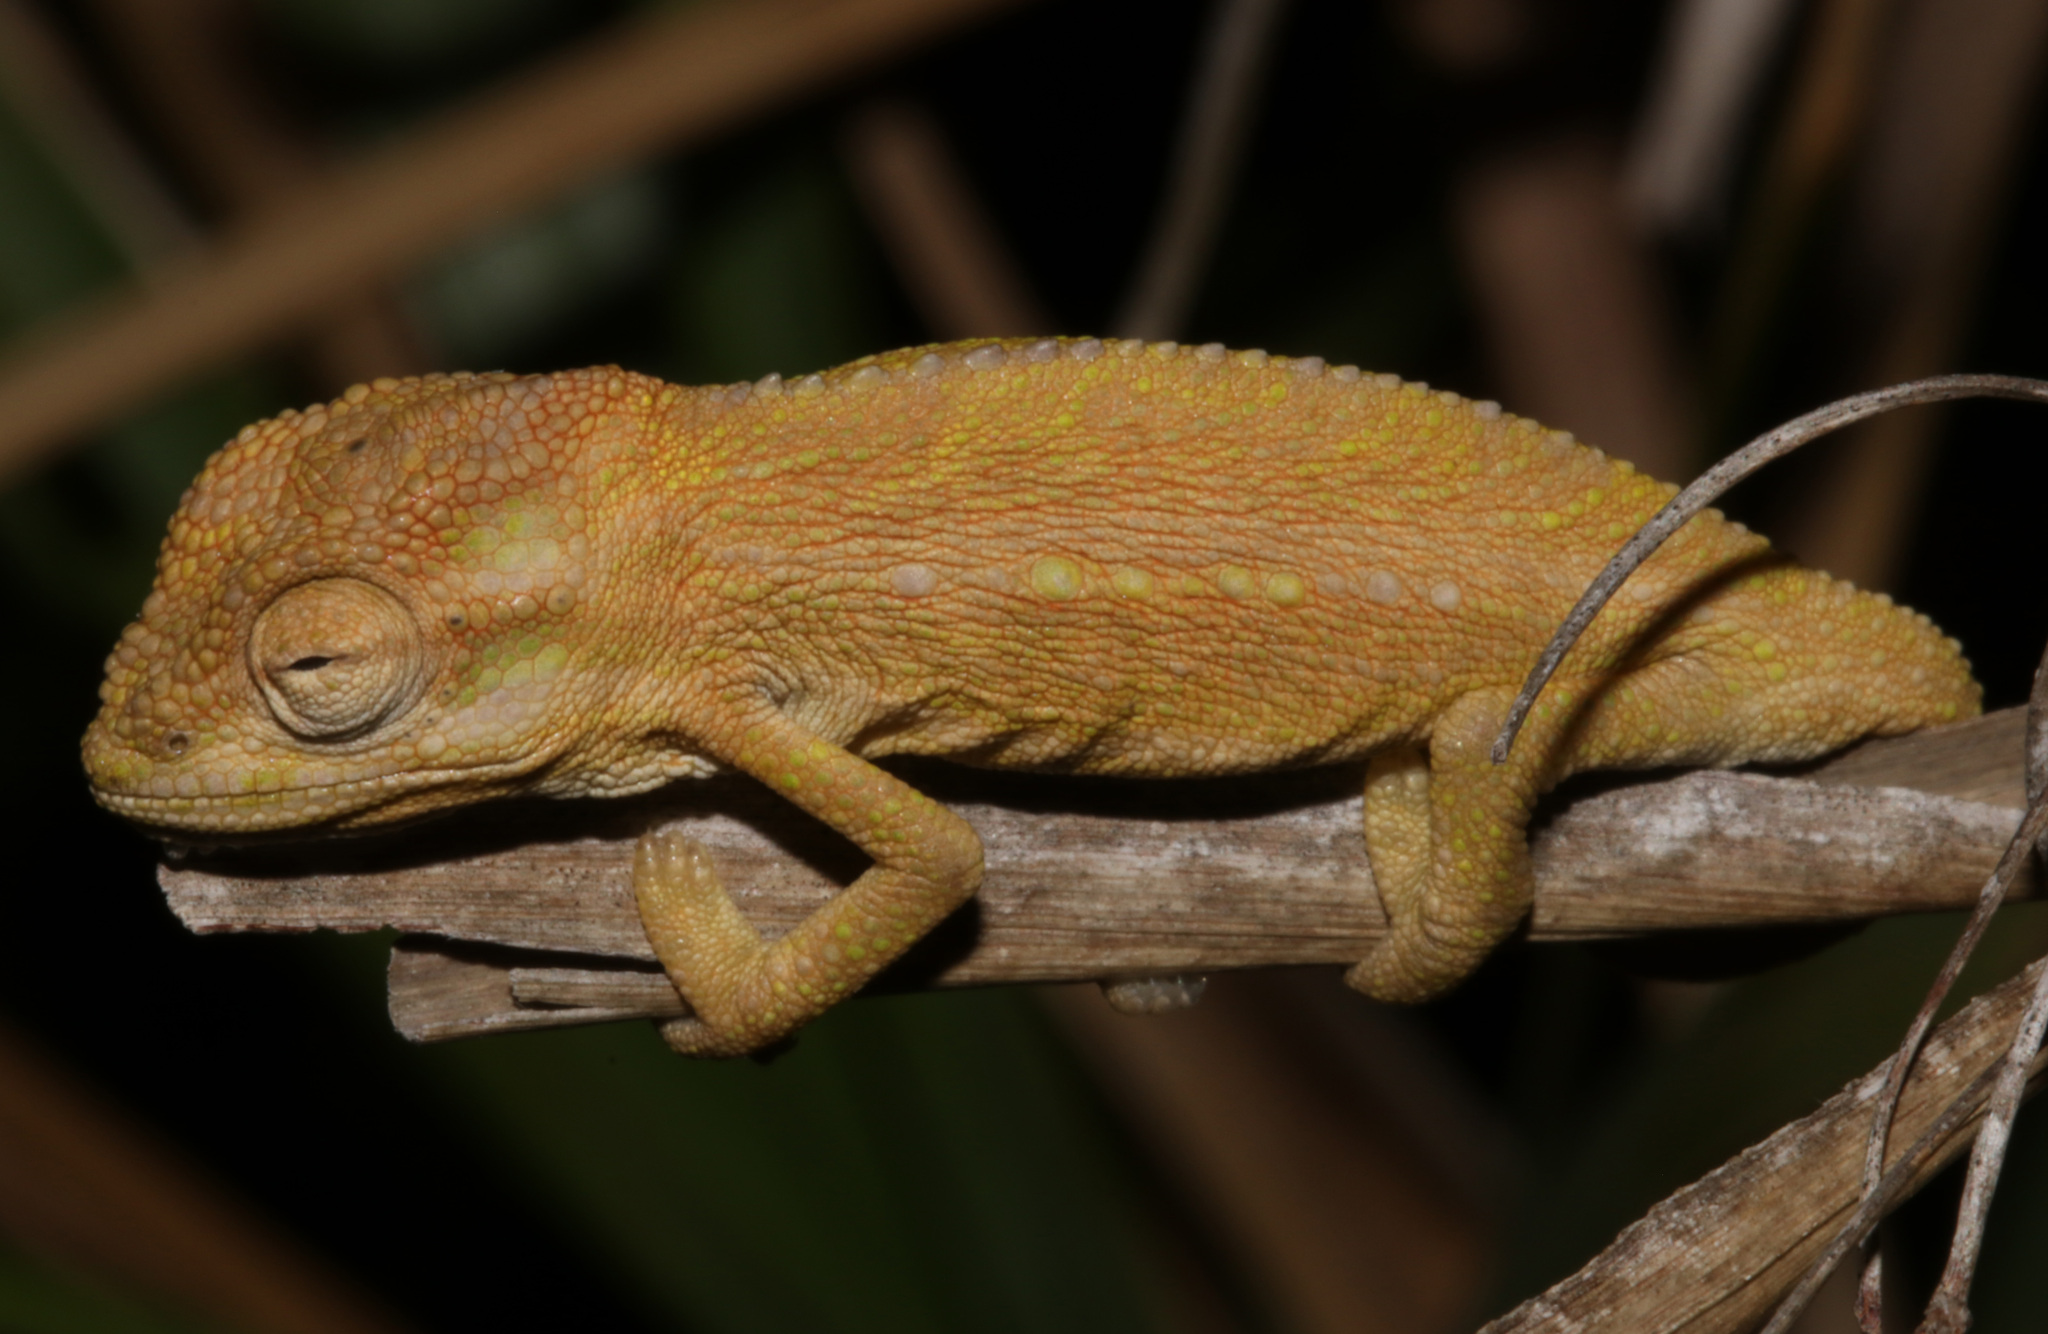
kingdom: Animalia
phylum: Chordata
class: Squamata
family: Chamaeleonidae
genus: Bradypodion
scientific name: Bradypodion pumilum
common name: Cape dwarf chameleon
